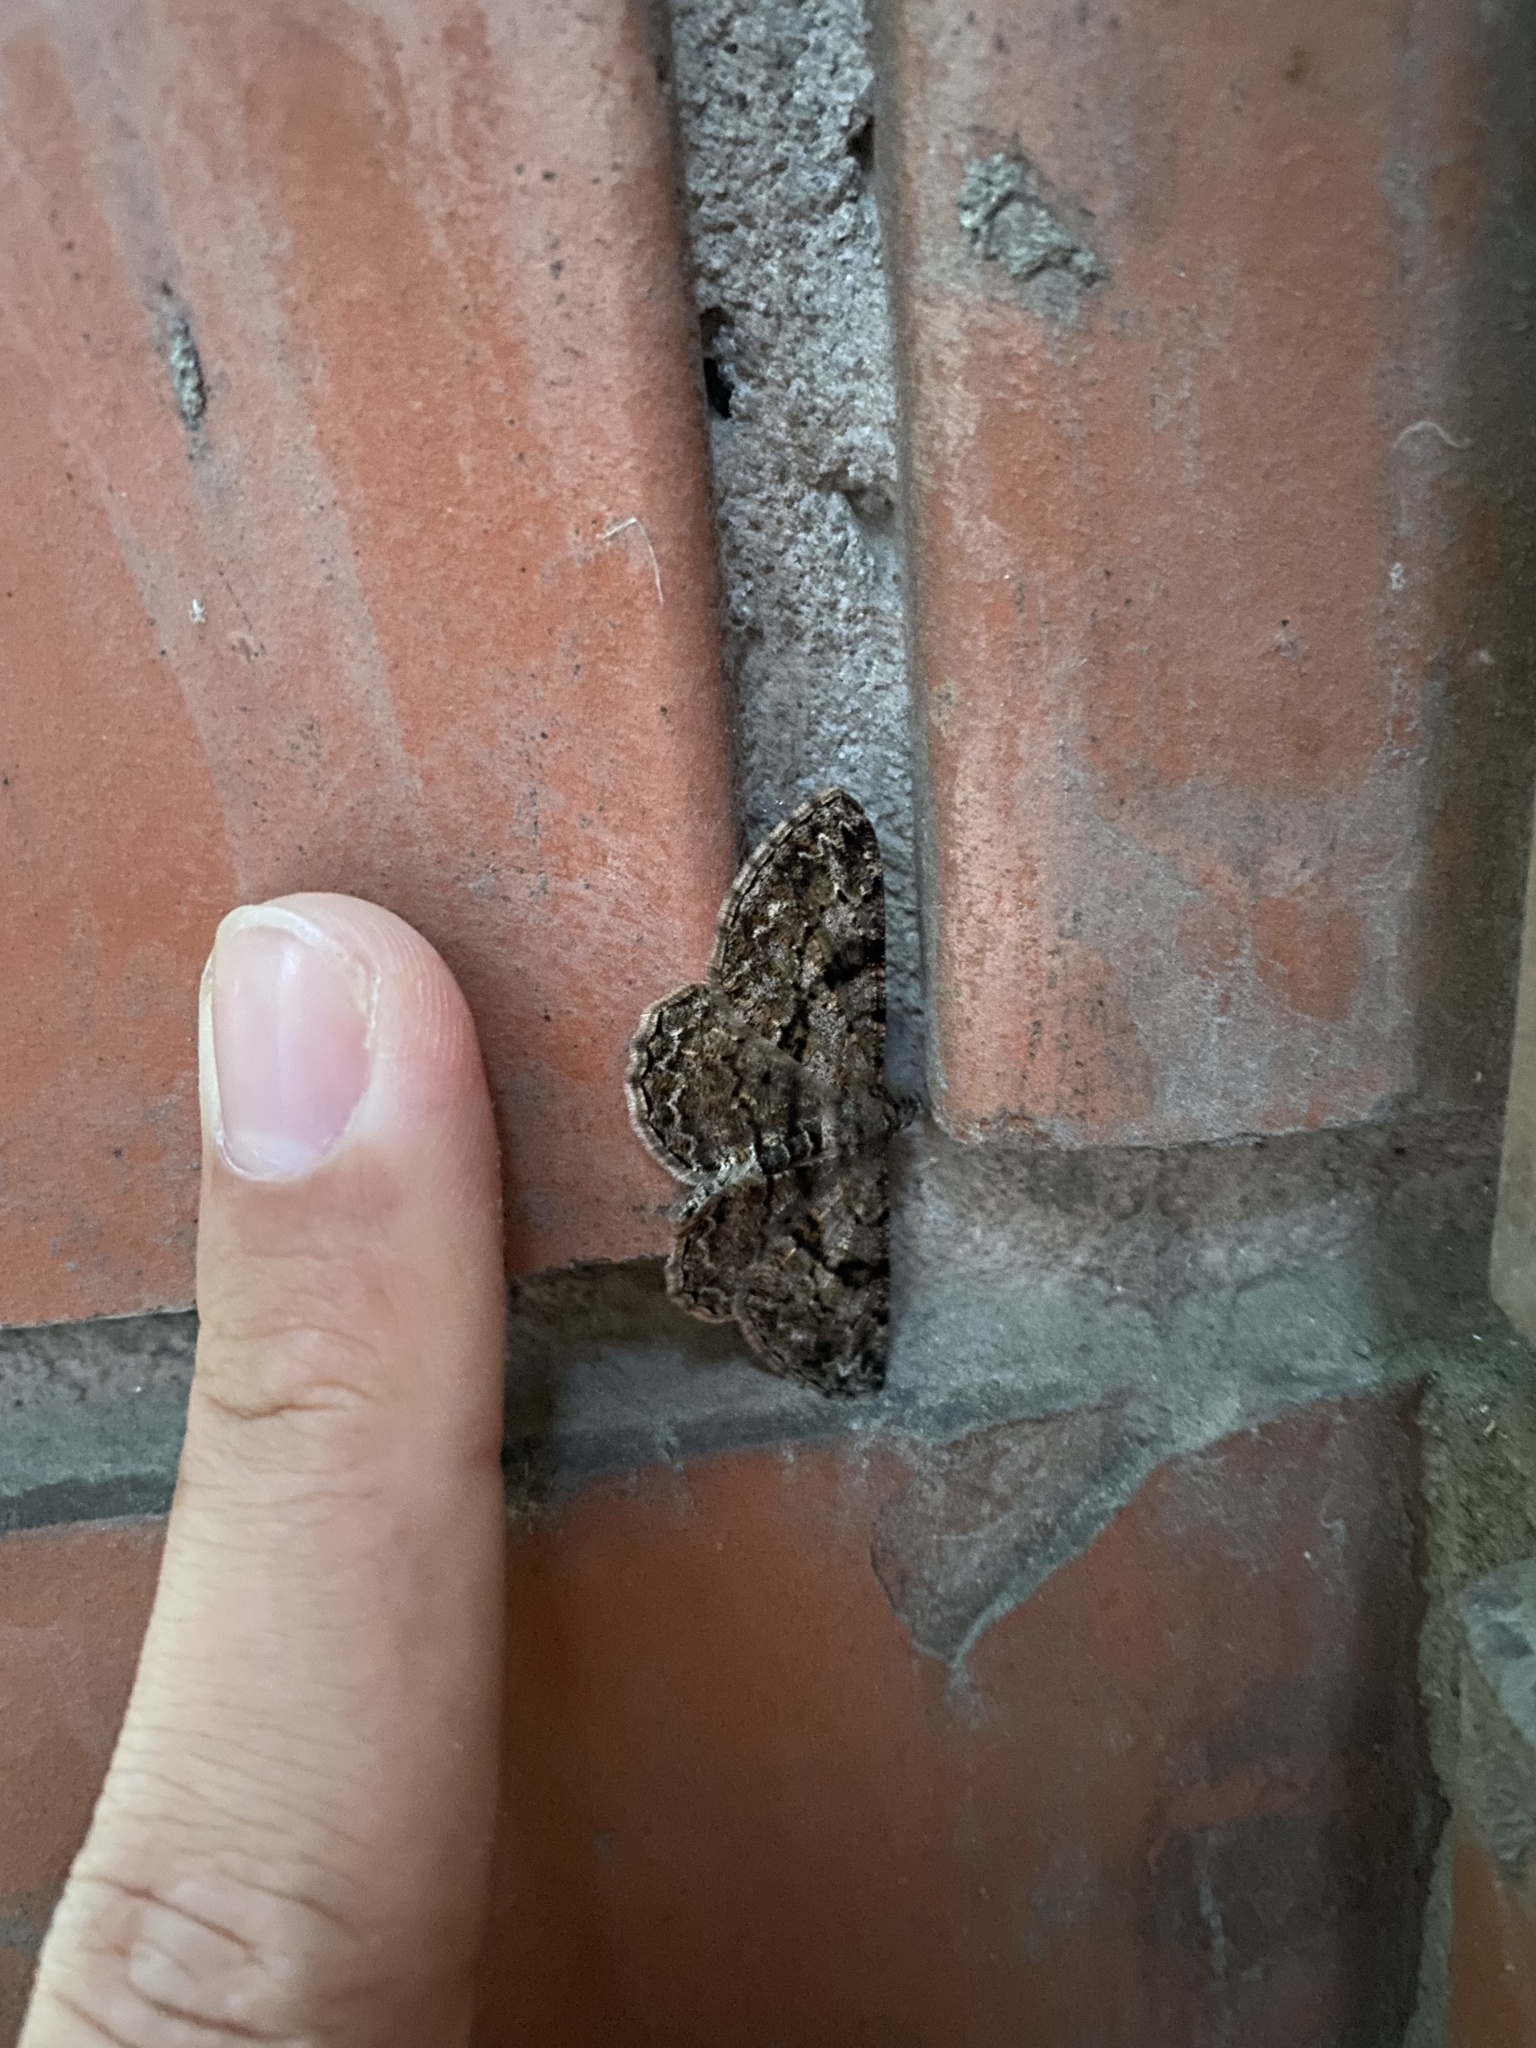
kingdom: Animalia
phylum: Arthropoda
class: Insecta
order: Lepidoptera
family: Geometridae
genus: Peribatodes
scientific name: Peribatodes rhomboidaria
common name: Willow beauty
